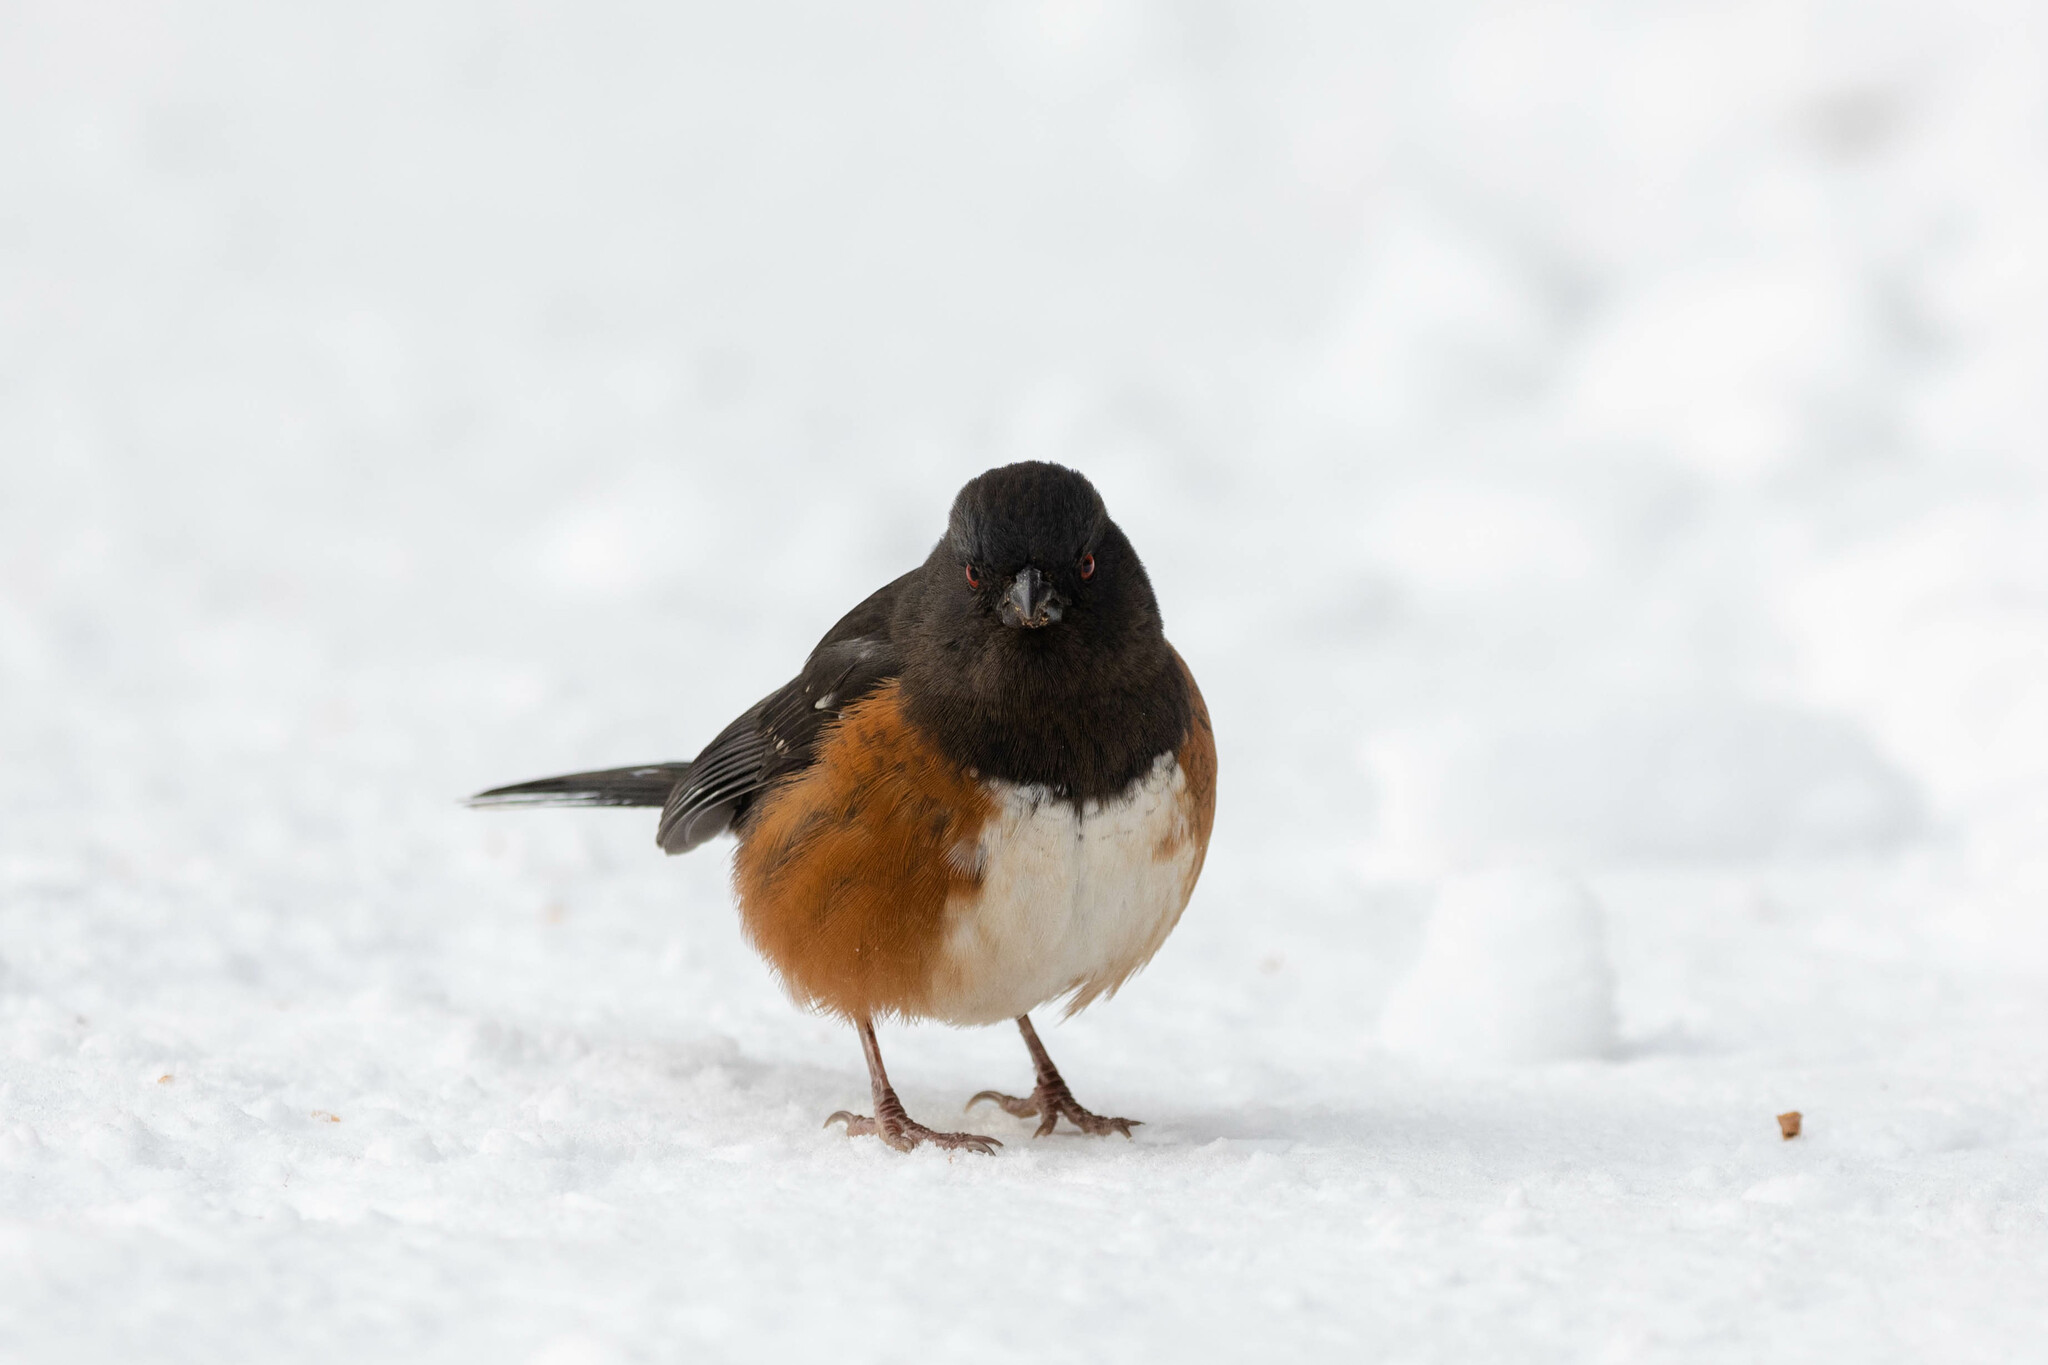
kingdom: Animalia
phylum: Chordata
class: Aves
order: Passeriformes
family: Passerellidae
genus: Pipilo
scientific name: Pipilo maculatus
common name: Spotted towhee
